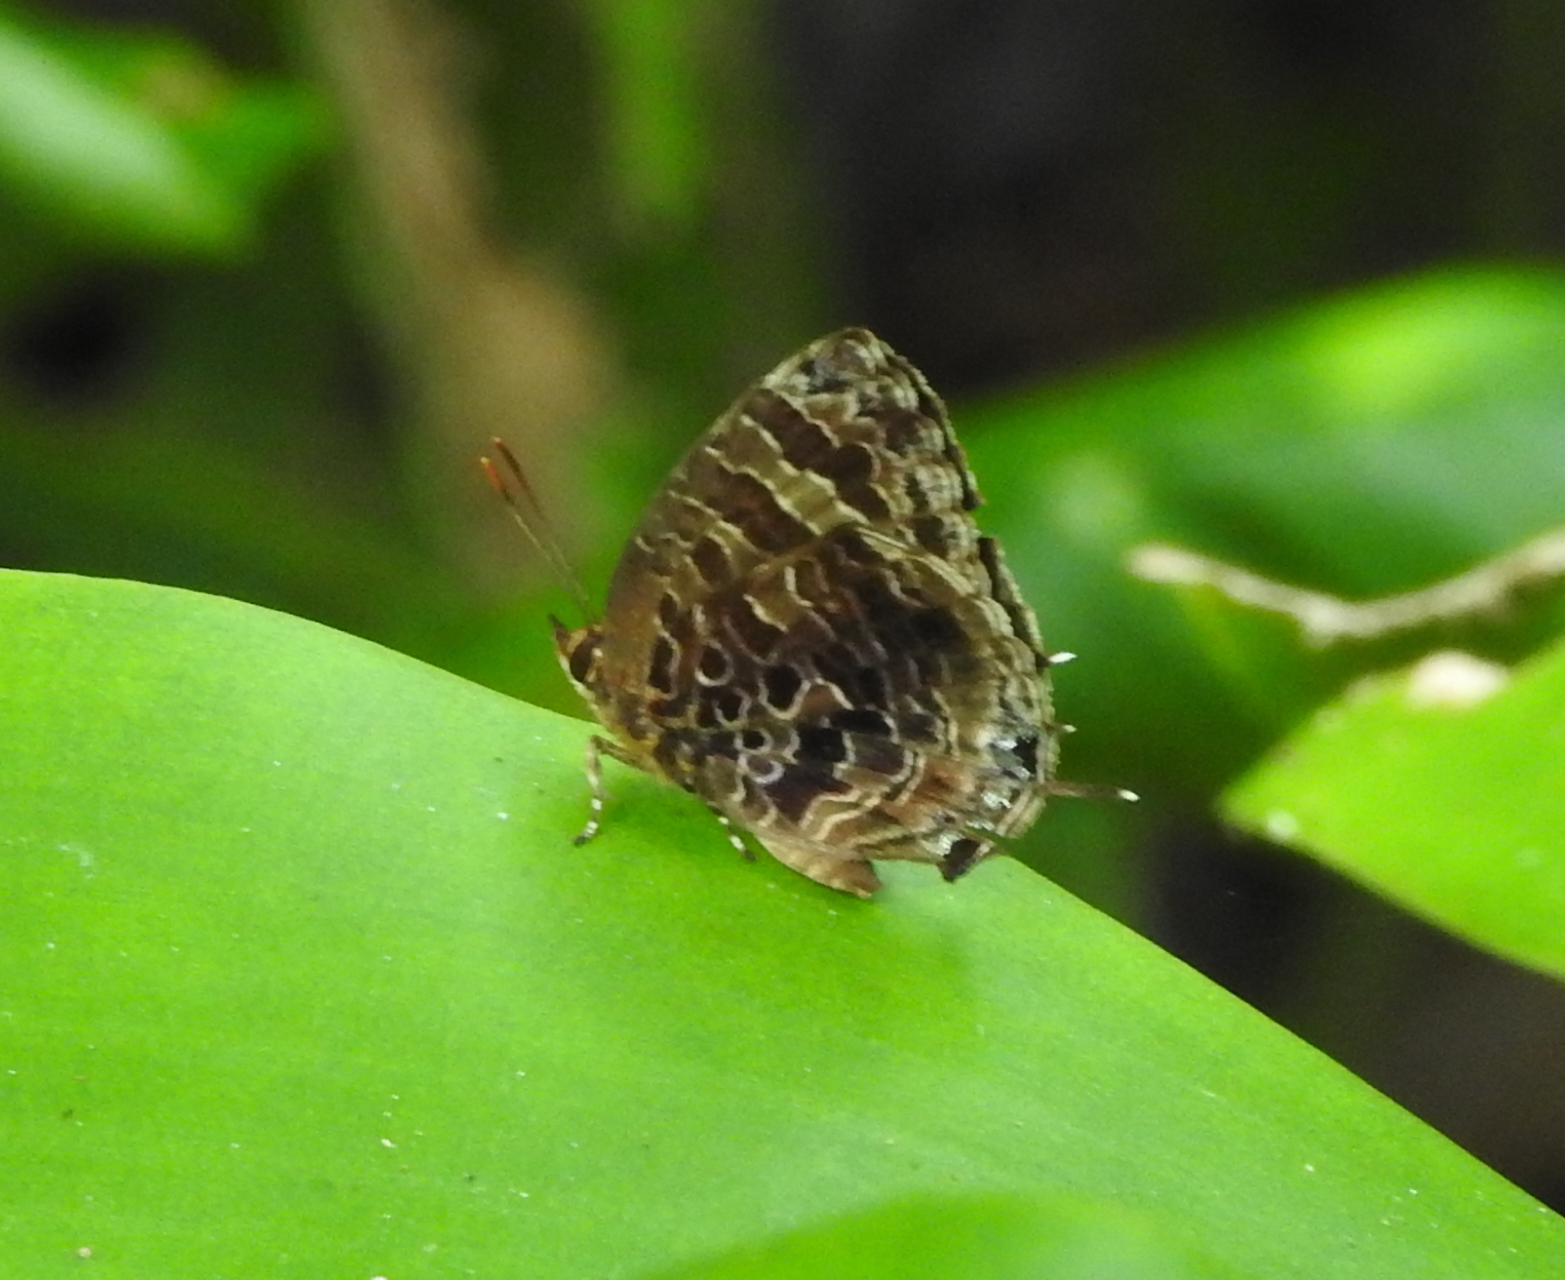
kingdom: Animalia
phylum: Arthropoda
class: Insecta
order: Lepidoptera
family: Lycaenidae
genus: Arhopala
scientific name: Arhopala abseus
